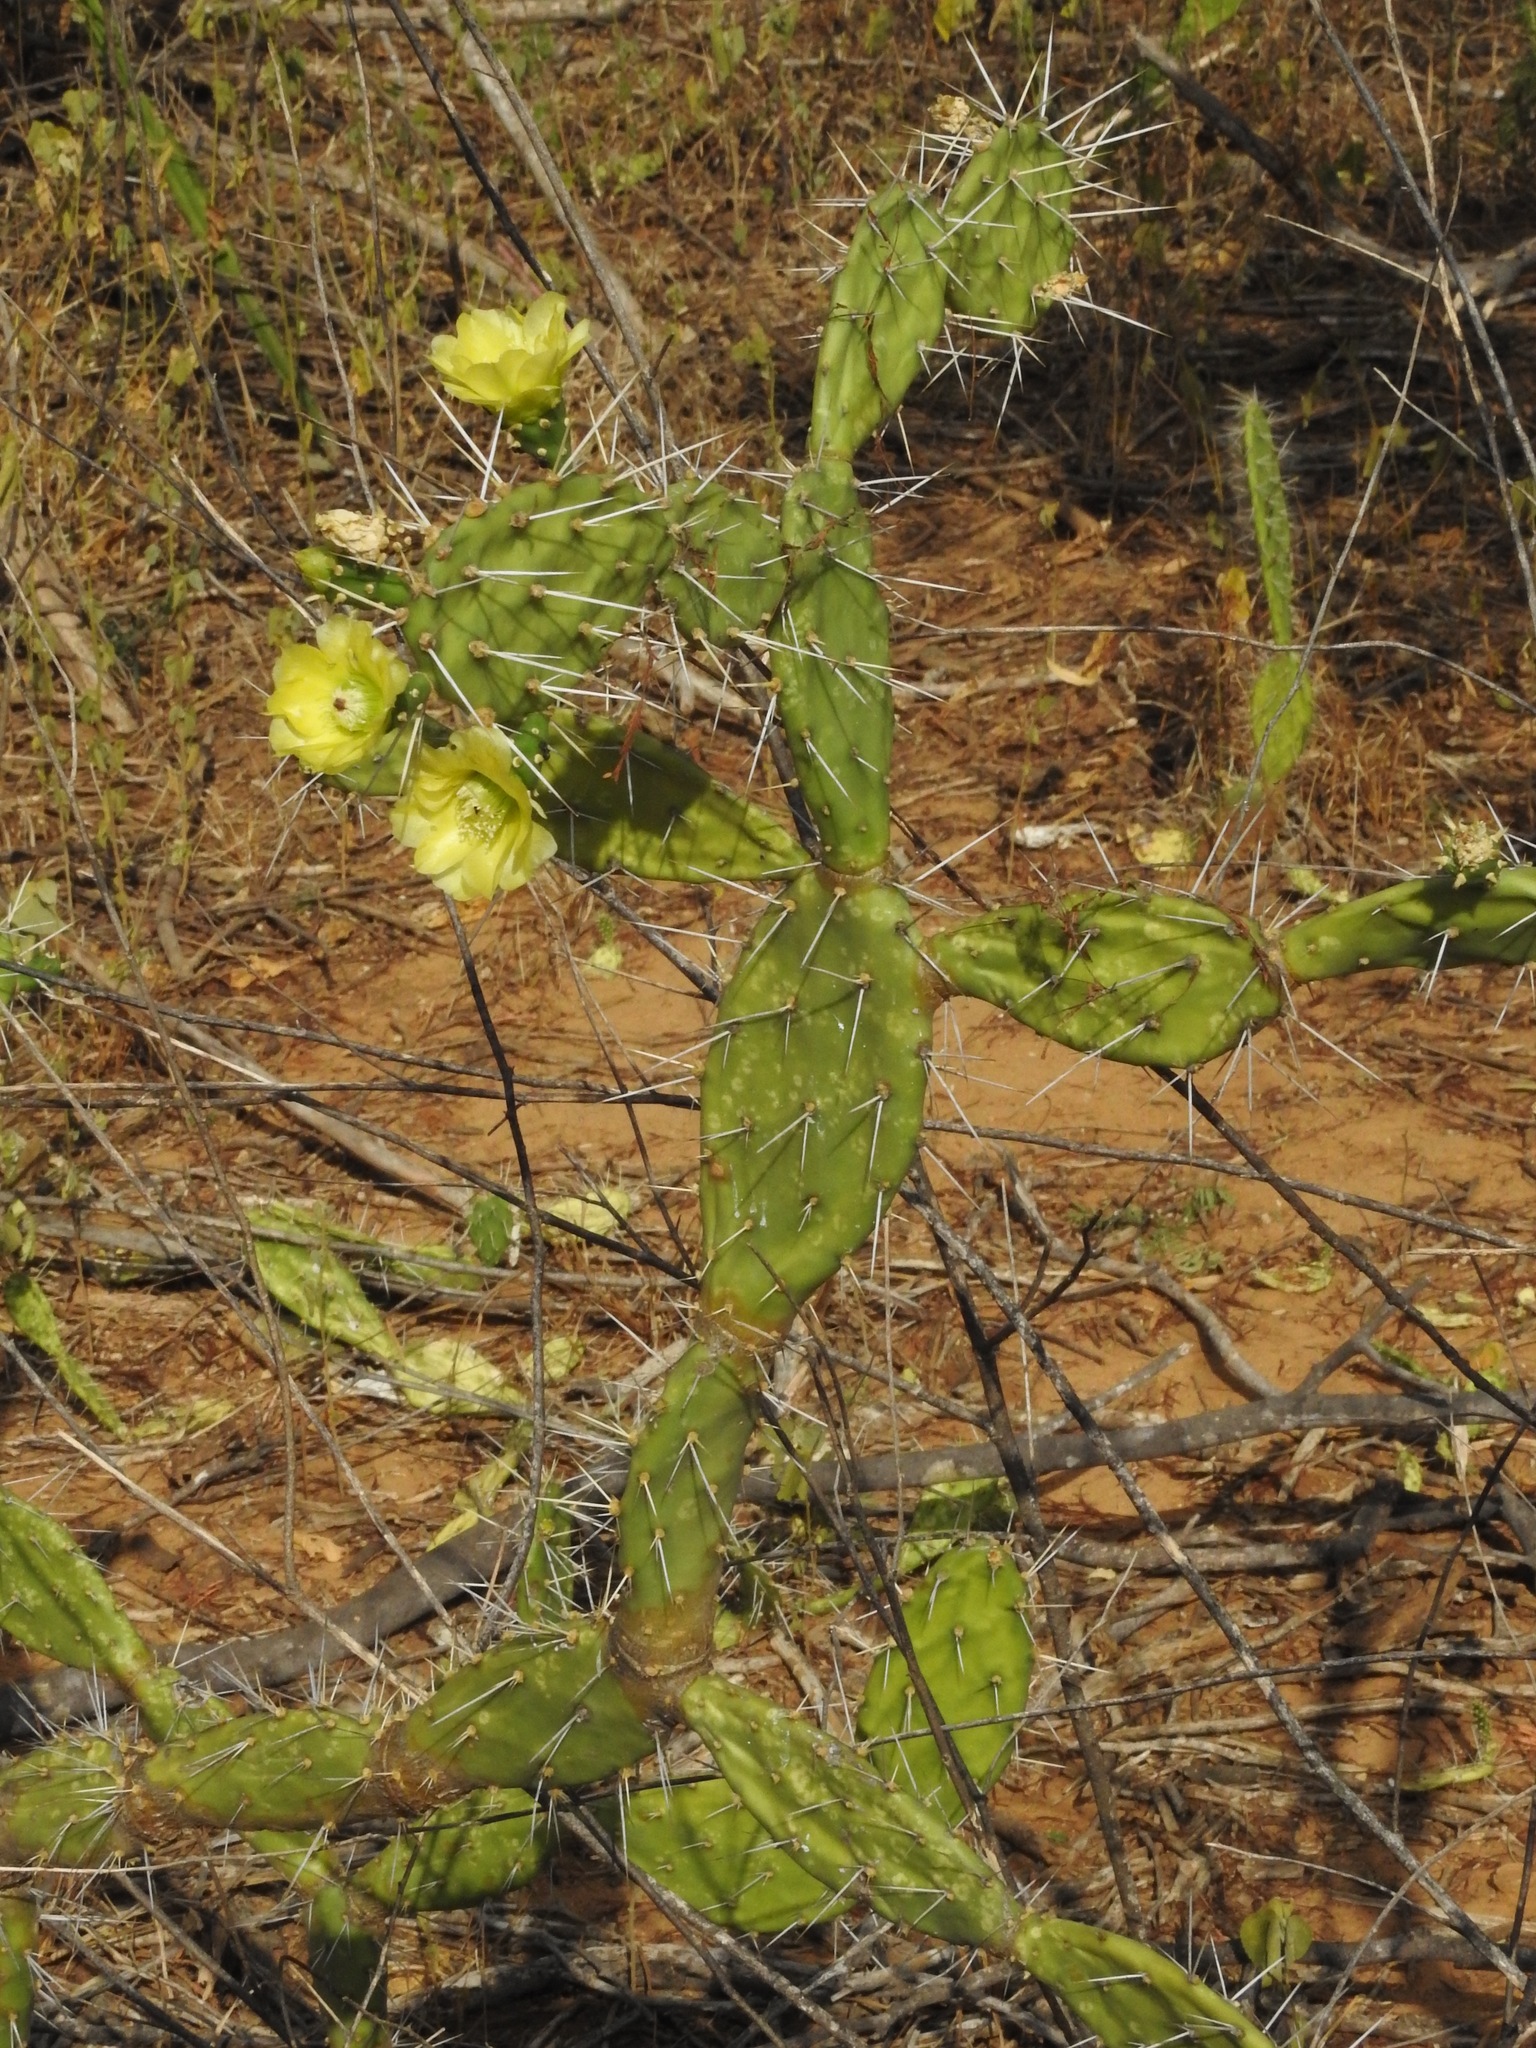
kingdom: Plantae
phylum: Tracheophyta
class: Magnoliopsida
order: Caryophyllales
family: Cactaceae
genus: Opuntia
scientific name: Opuntia caracassana
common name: Common prickly pear
